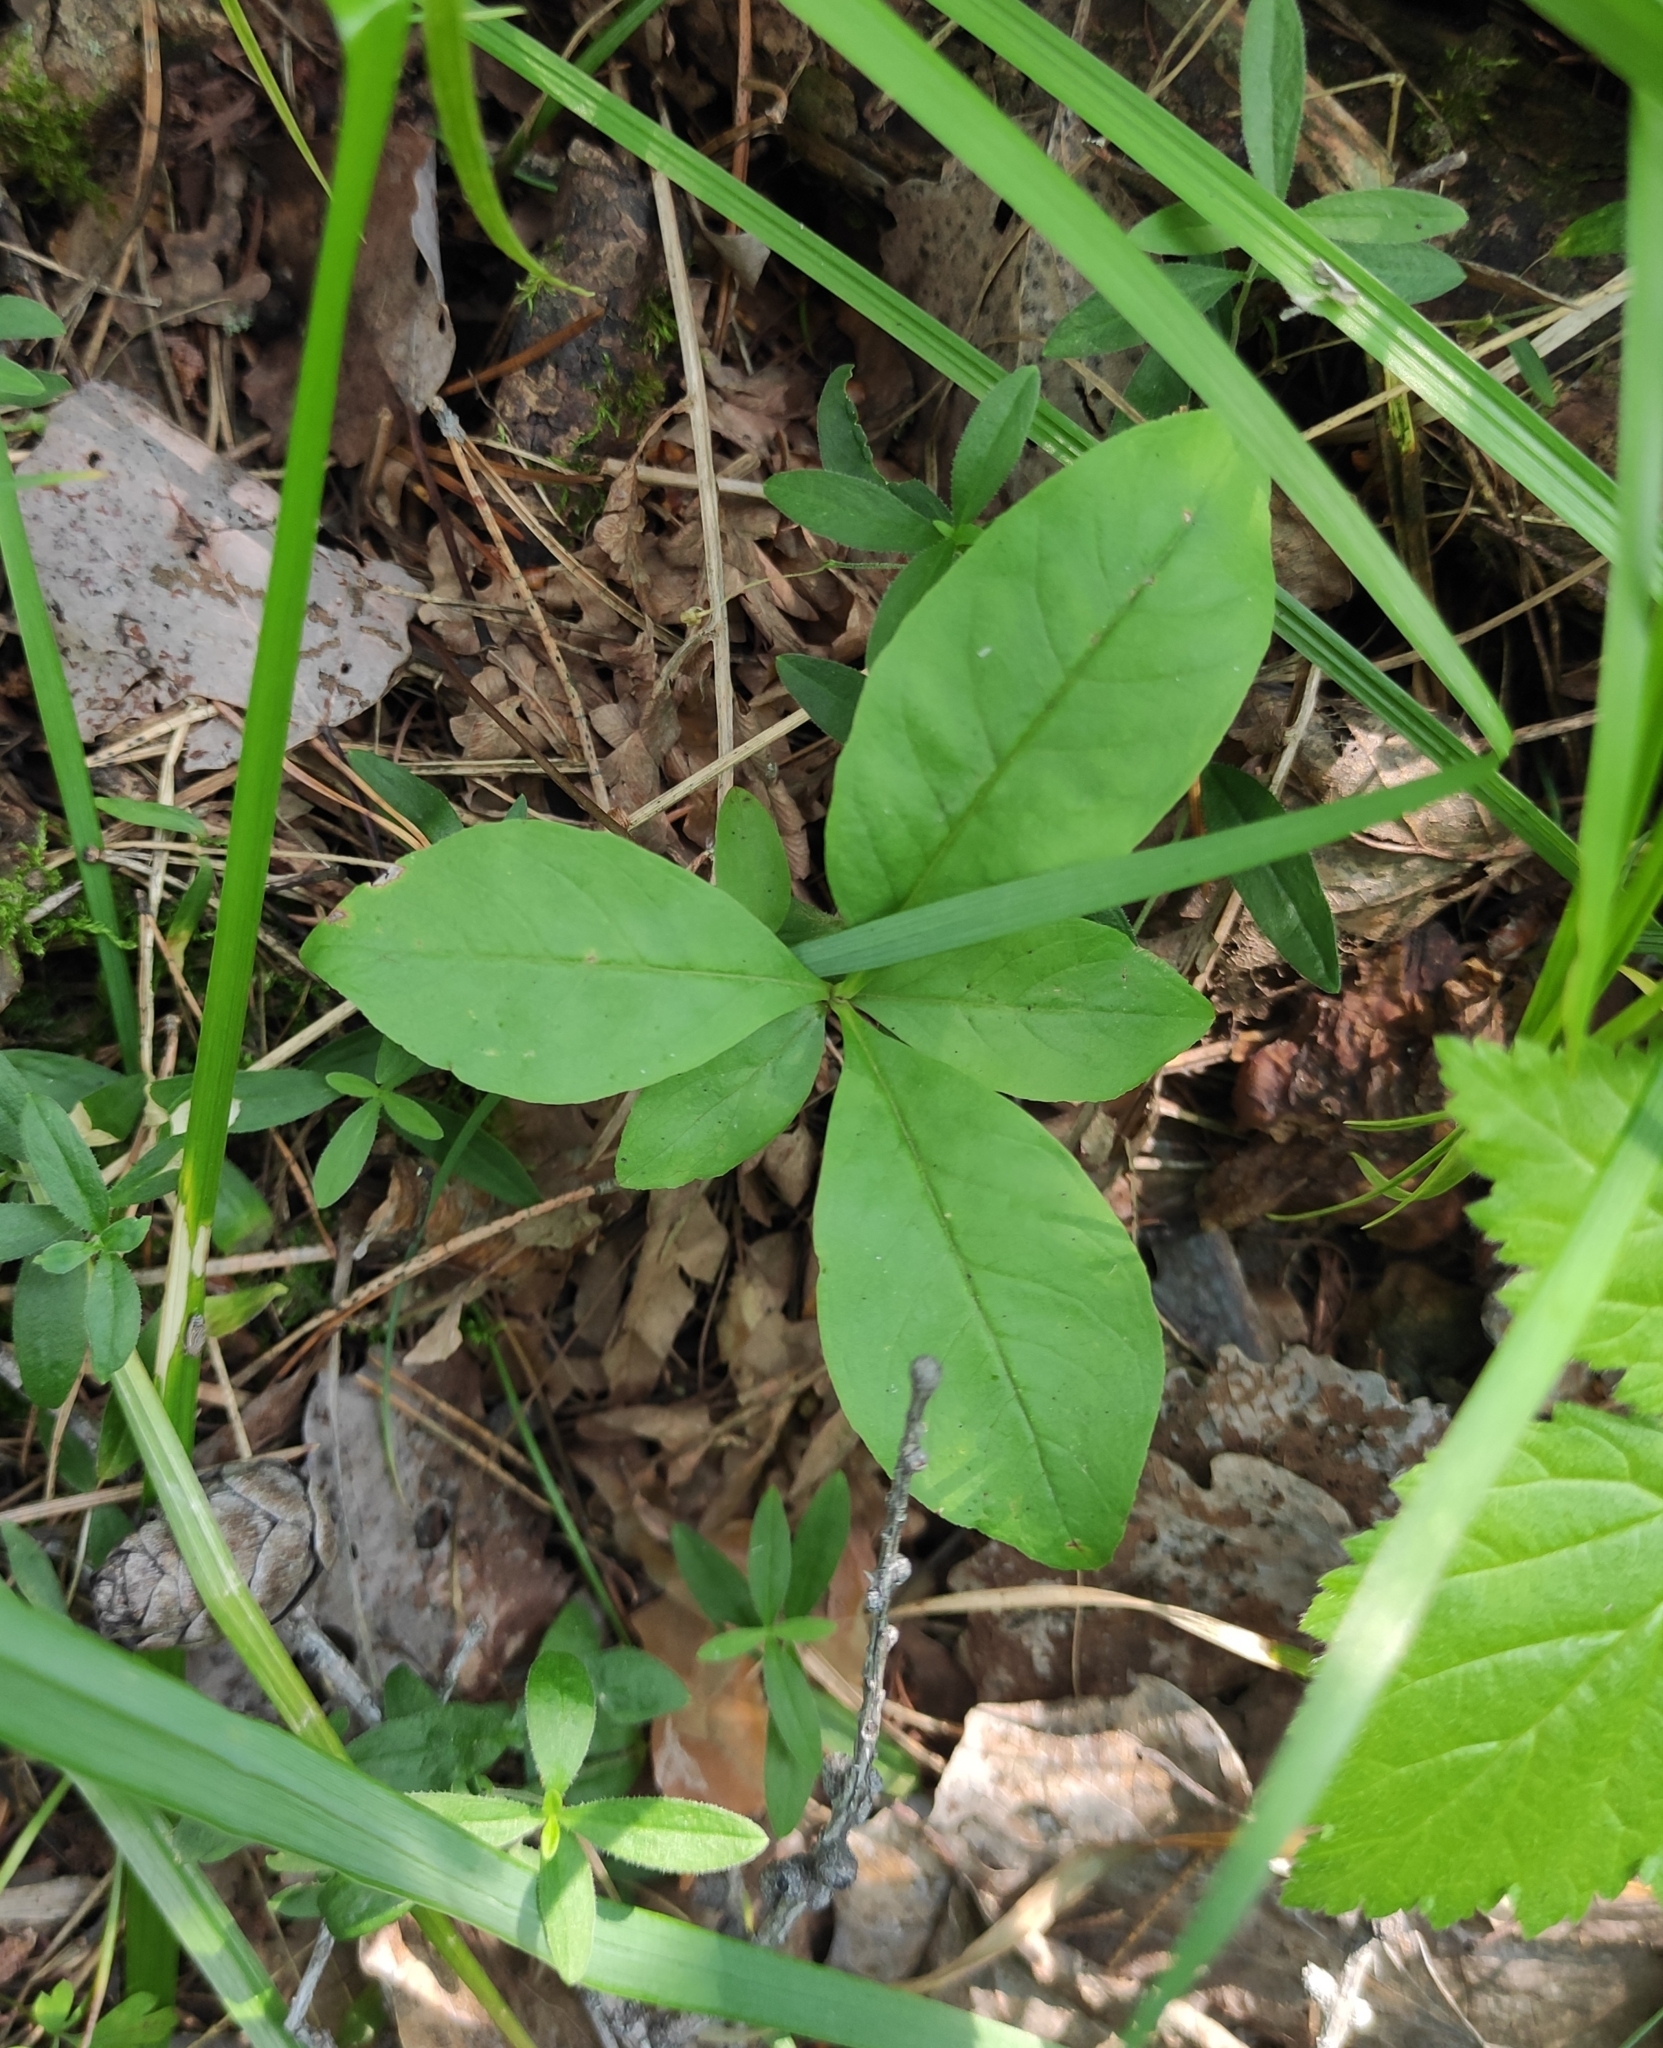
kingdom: Plantae
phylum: Tracheophyta
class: Magnoliopsida
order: Ericales
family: Primulaceae
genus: Lysimachia
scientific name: Lysimachia europaea
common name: Arctic starflower
